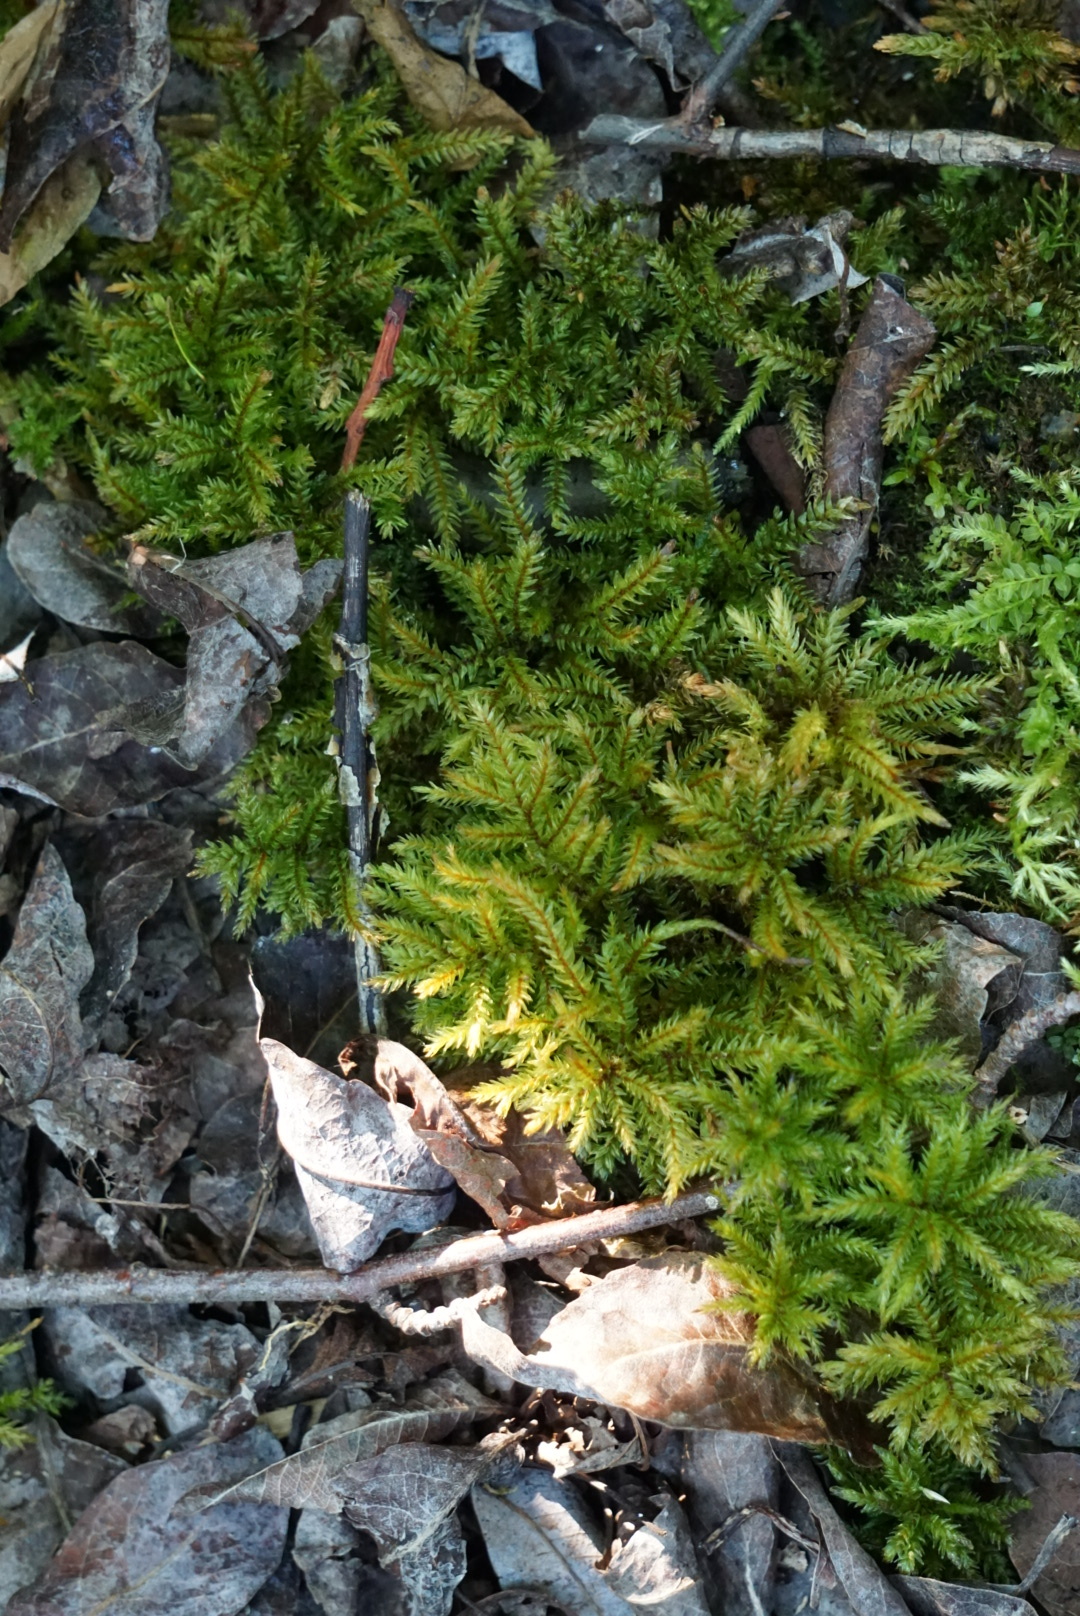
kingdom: Plantae
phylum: Bryophyta
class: Bryopsida
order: Hypnales
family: Climaciaceae
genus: Climacium
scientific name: Climacium dendroides
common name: Northern tree moss
